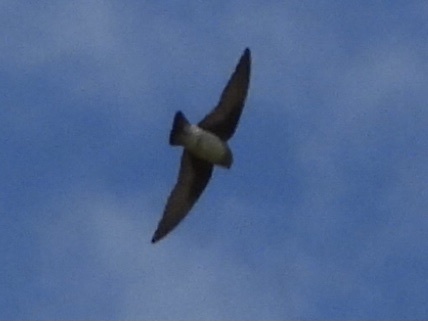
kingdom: Animalia
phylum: Chordata
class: Aves
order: Passeriformes
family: Hirundinidae
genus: Stelgidopteryx
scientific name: Stelgidopteryx serripennis
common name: Northern rough-winged swallow
